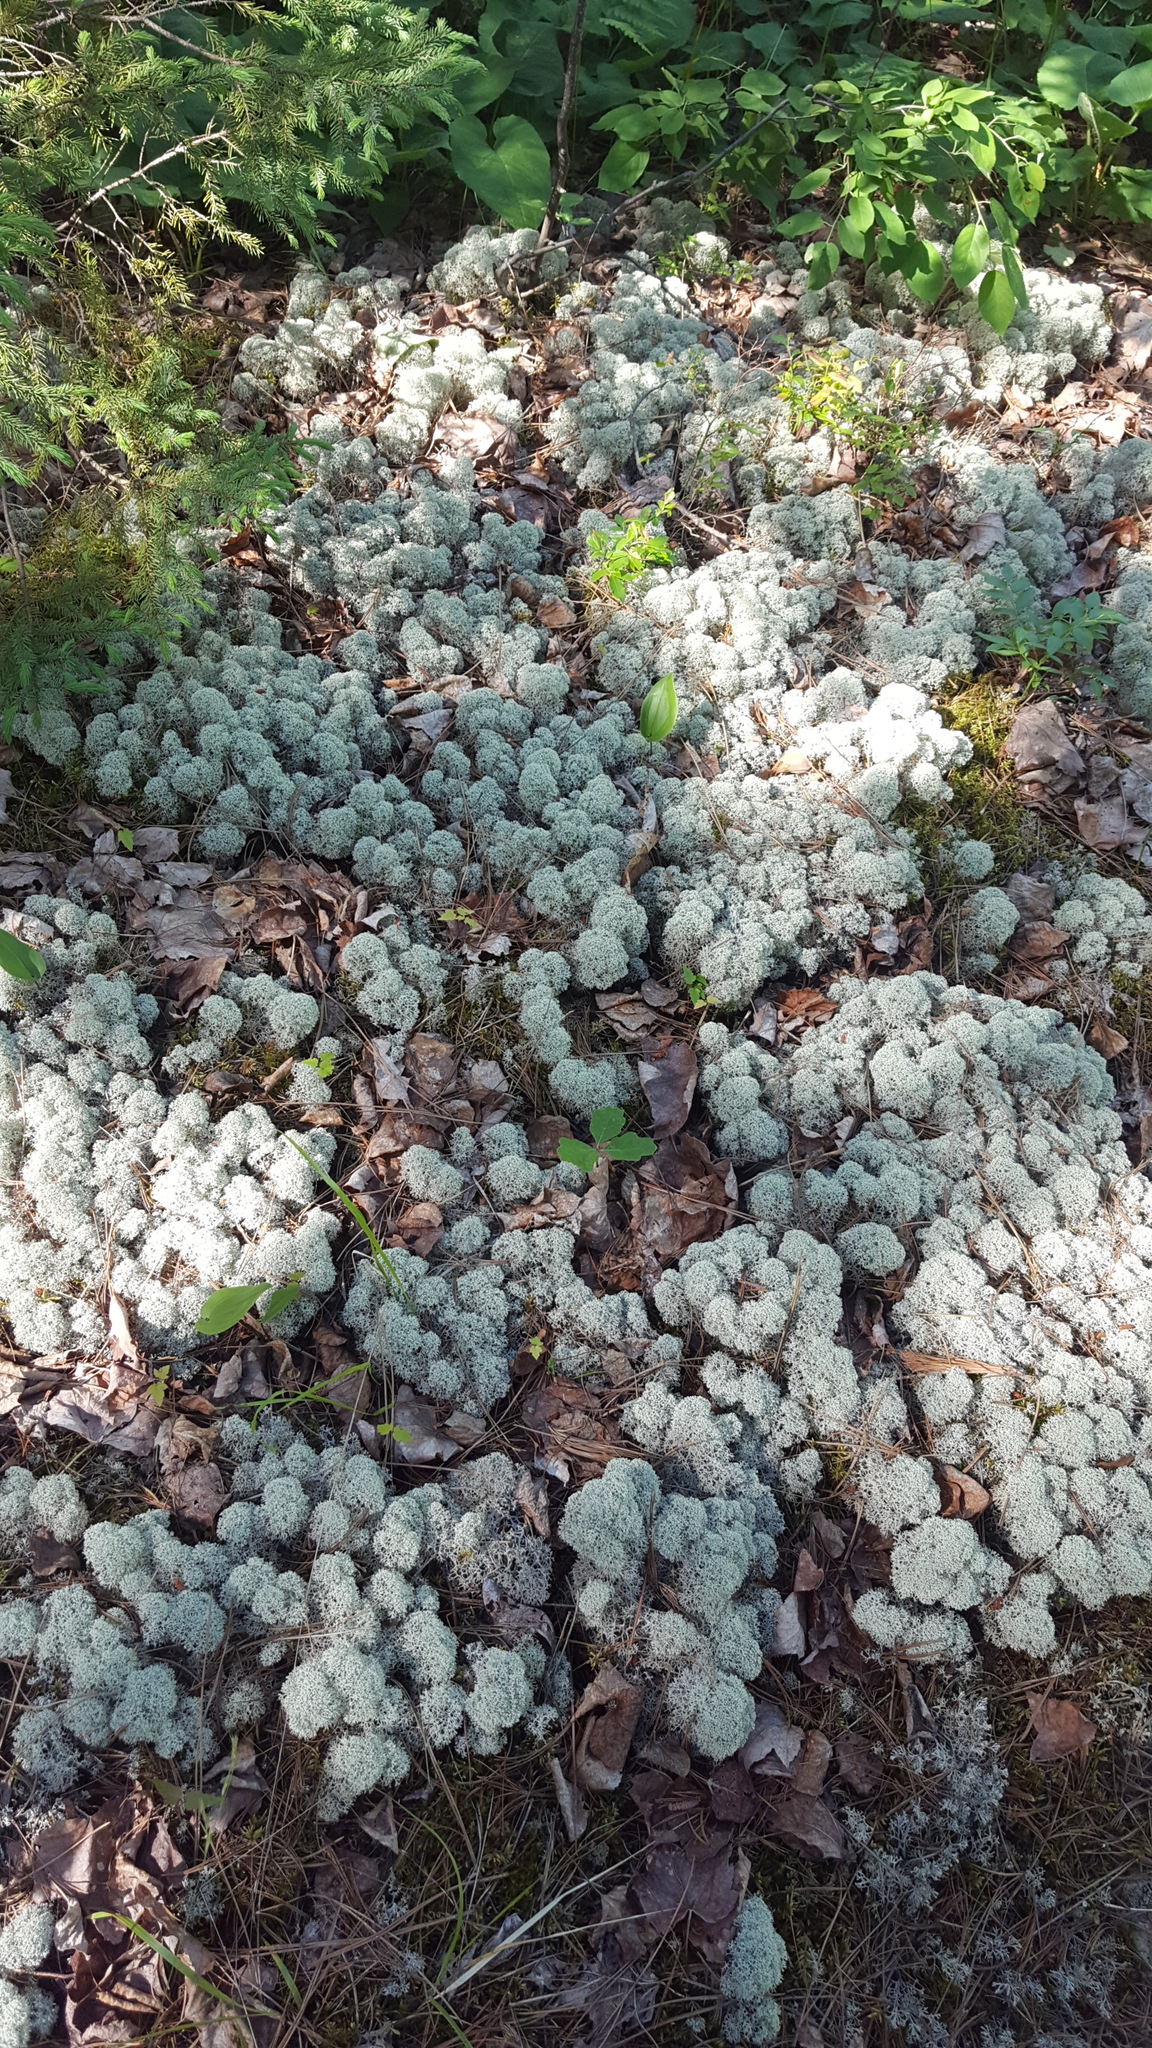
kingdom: Fungi
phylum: Ascomycota
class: Lecanoromycetes
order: Lecanorales
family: Cladoniaceae
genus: Cladonia
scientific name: Cladonia stellaris
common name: Star-tipped reindeer lichen
